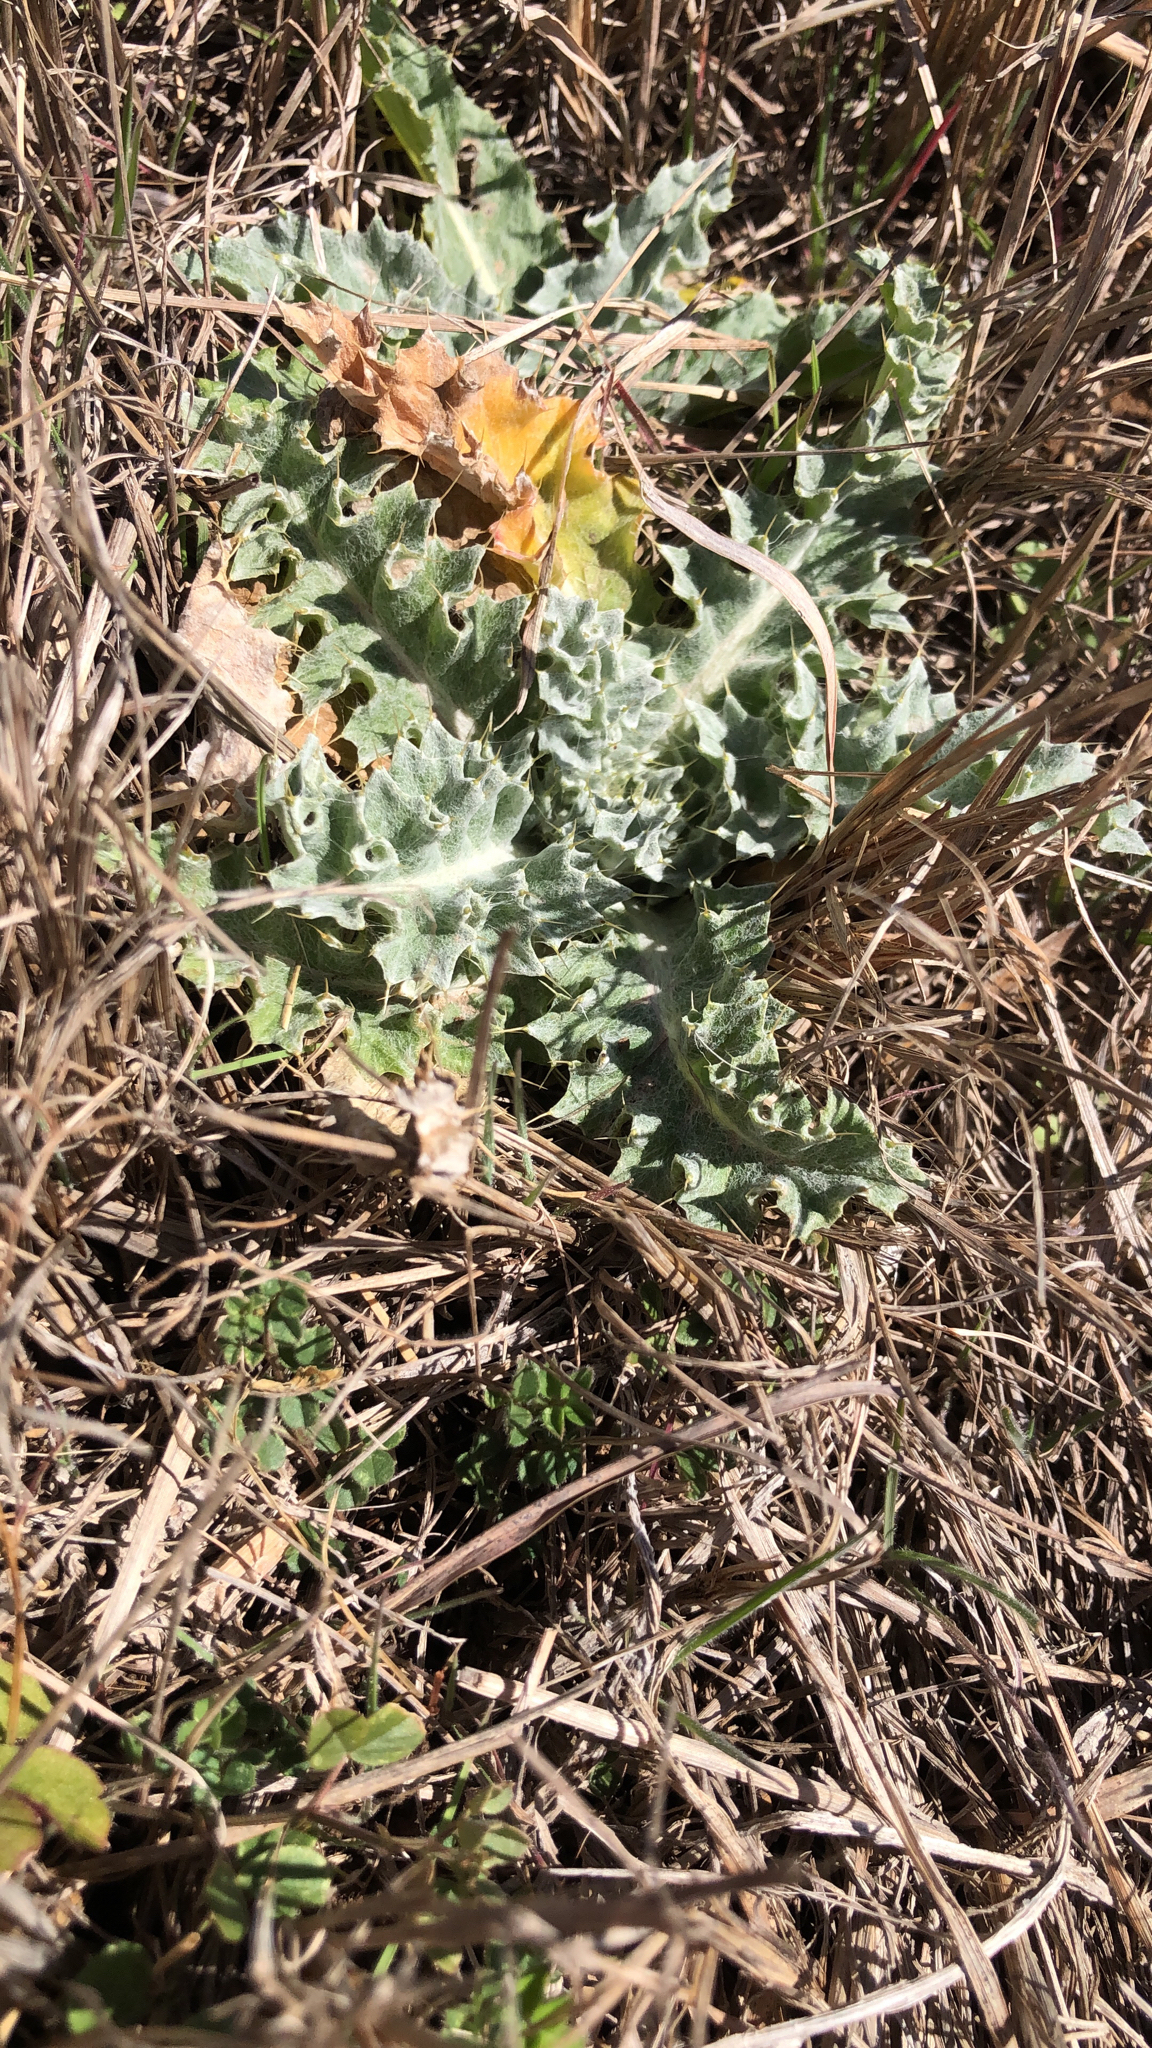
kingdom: Plantae
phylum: Tracheophyta
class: Magnoliopsida
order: Asterales
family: Asteraceae
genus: Cirsium
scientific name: Cirsium undulatum
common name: Pasture thistle
